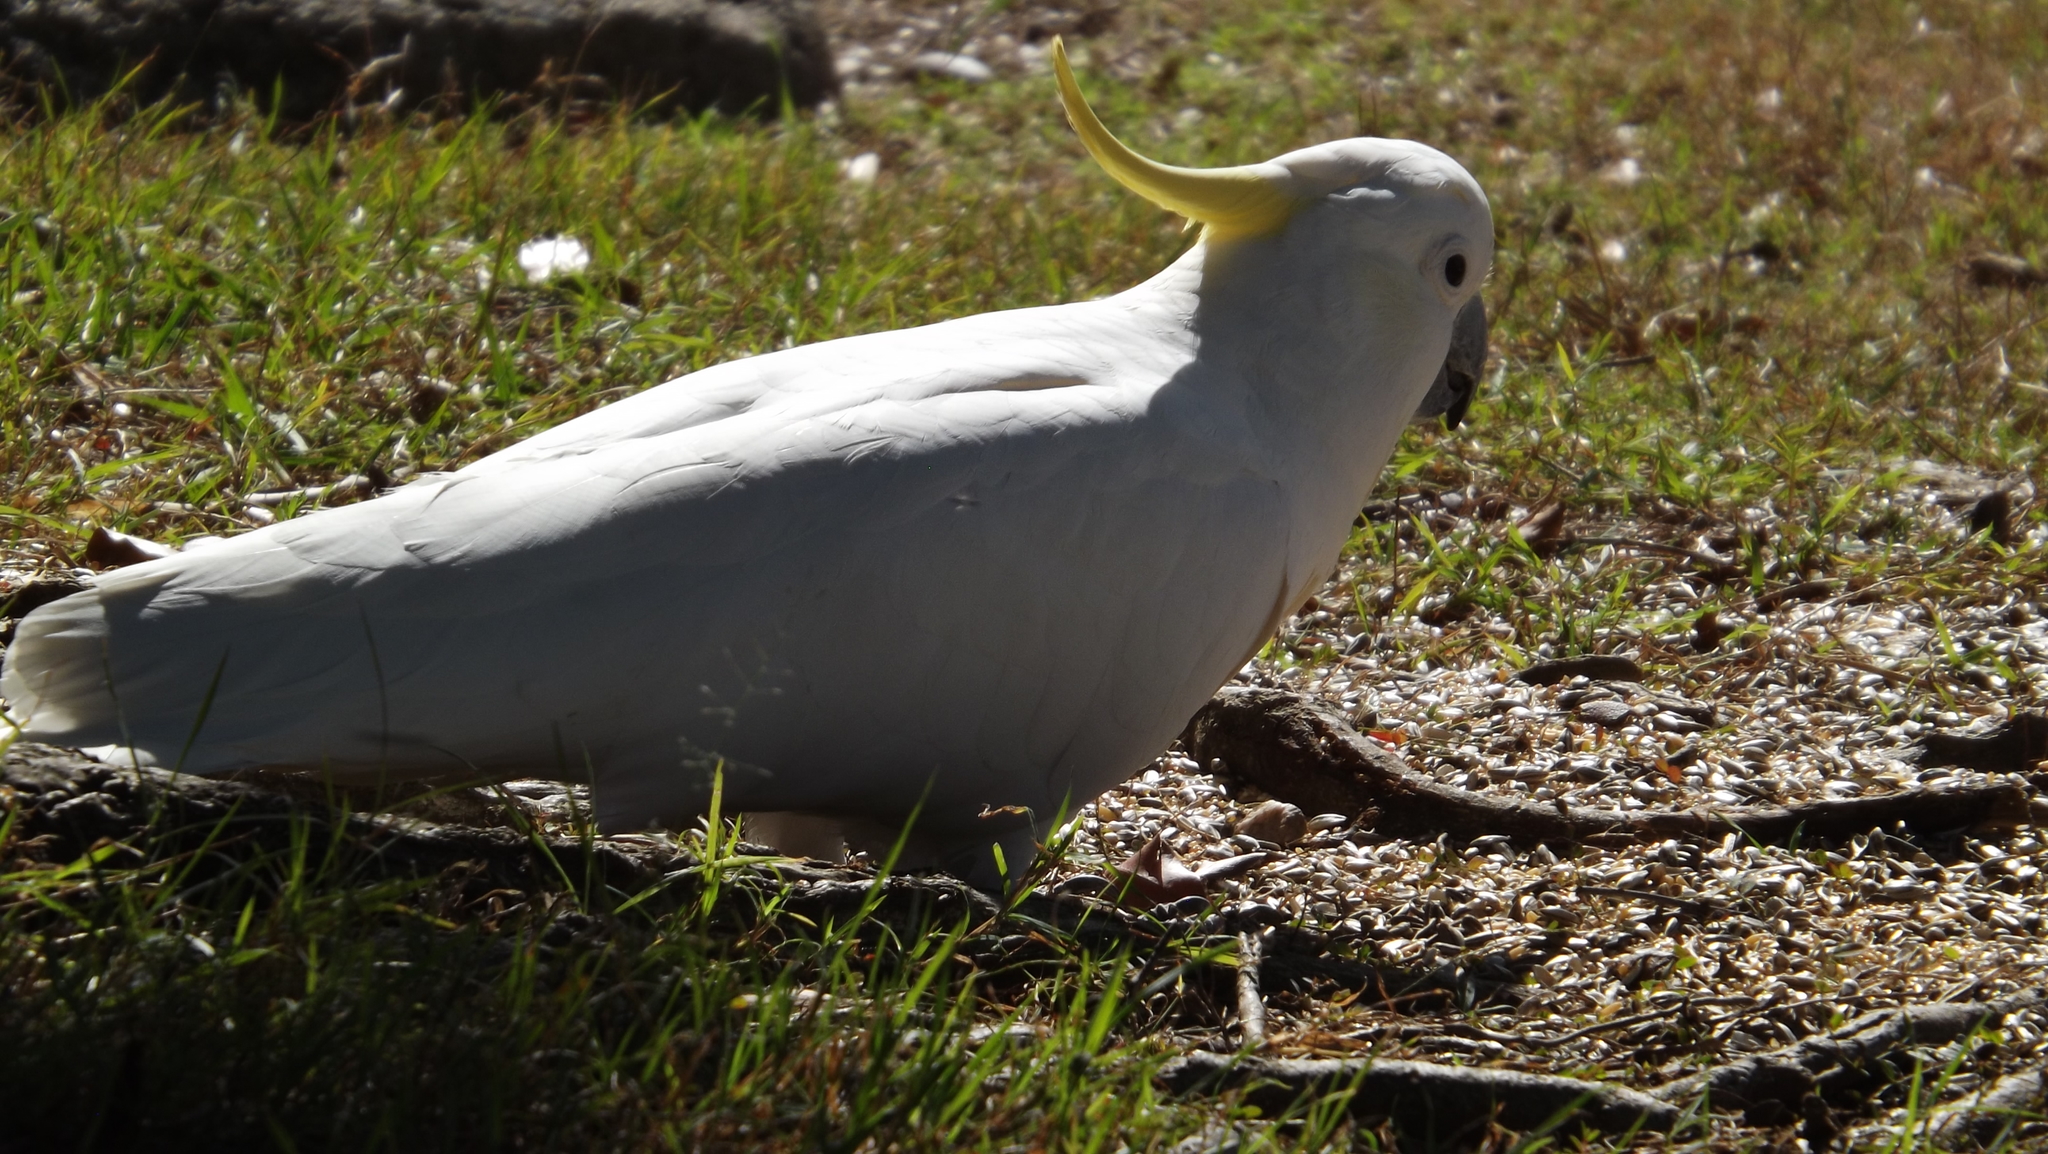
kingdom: Animalia
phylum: Chordata
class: Aves
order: Psittaciformes
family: Psittacidae
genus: Cacatua
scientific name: Cacatua galerita
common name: Sulphur-crested cockatoo
